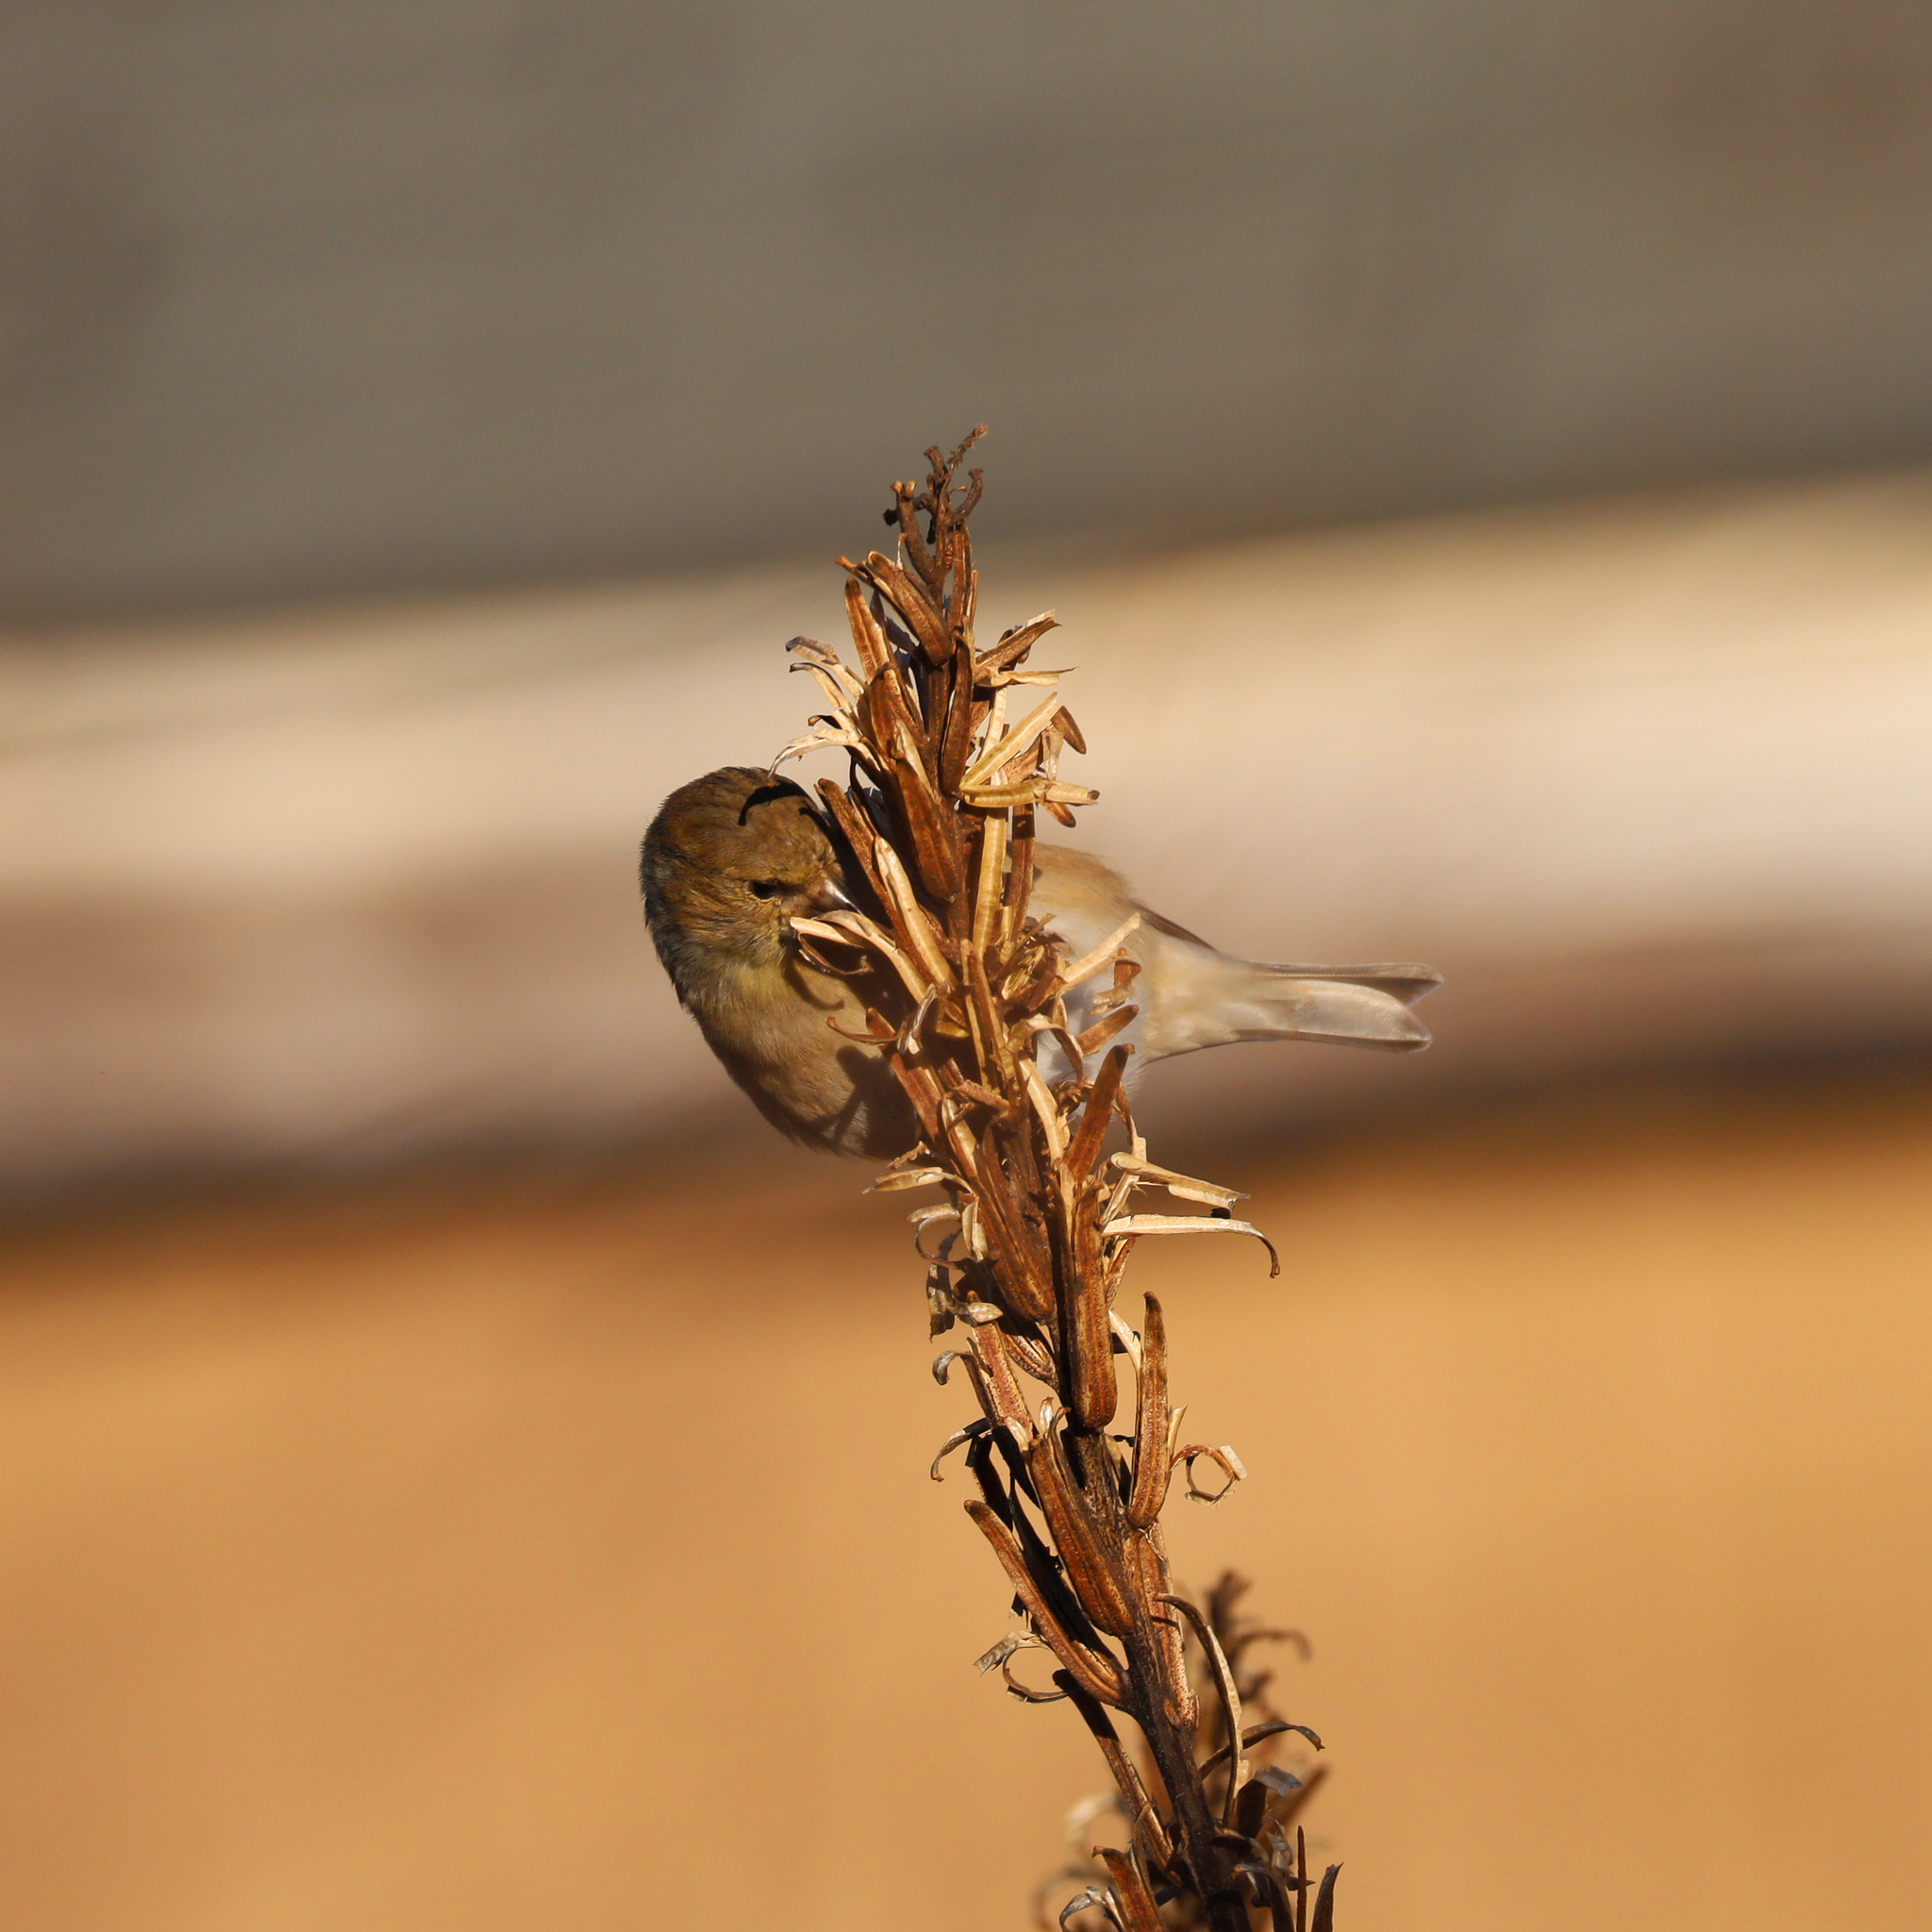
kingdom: Animalia
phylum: Chordata
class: Aves
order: Passeriformes
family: Fringillidae
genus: Spinus
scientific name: Spinus tristis
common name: American goldfinch
